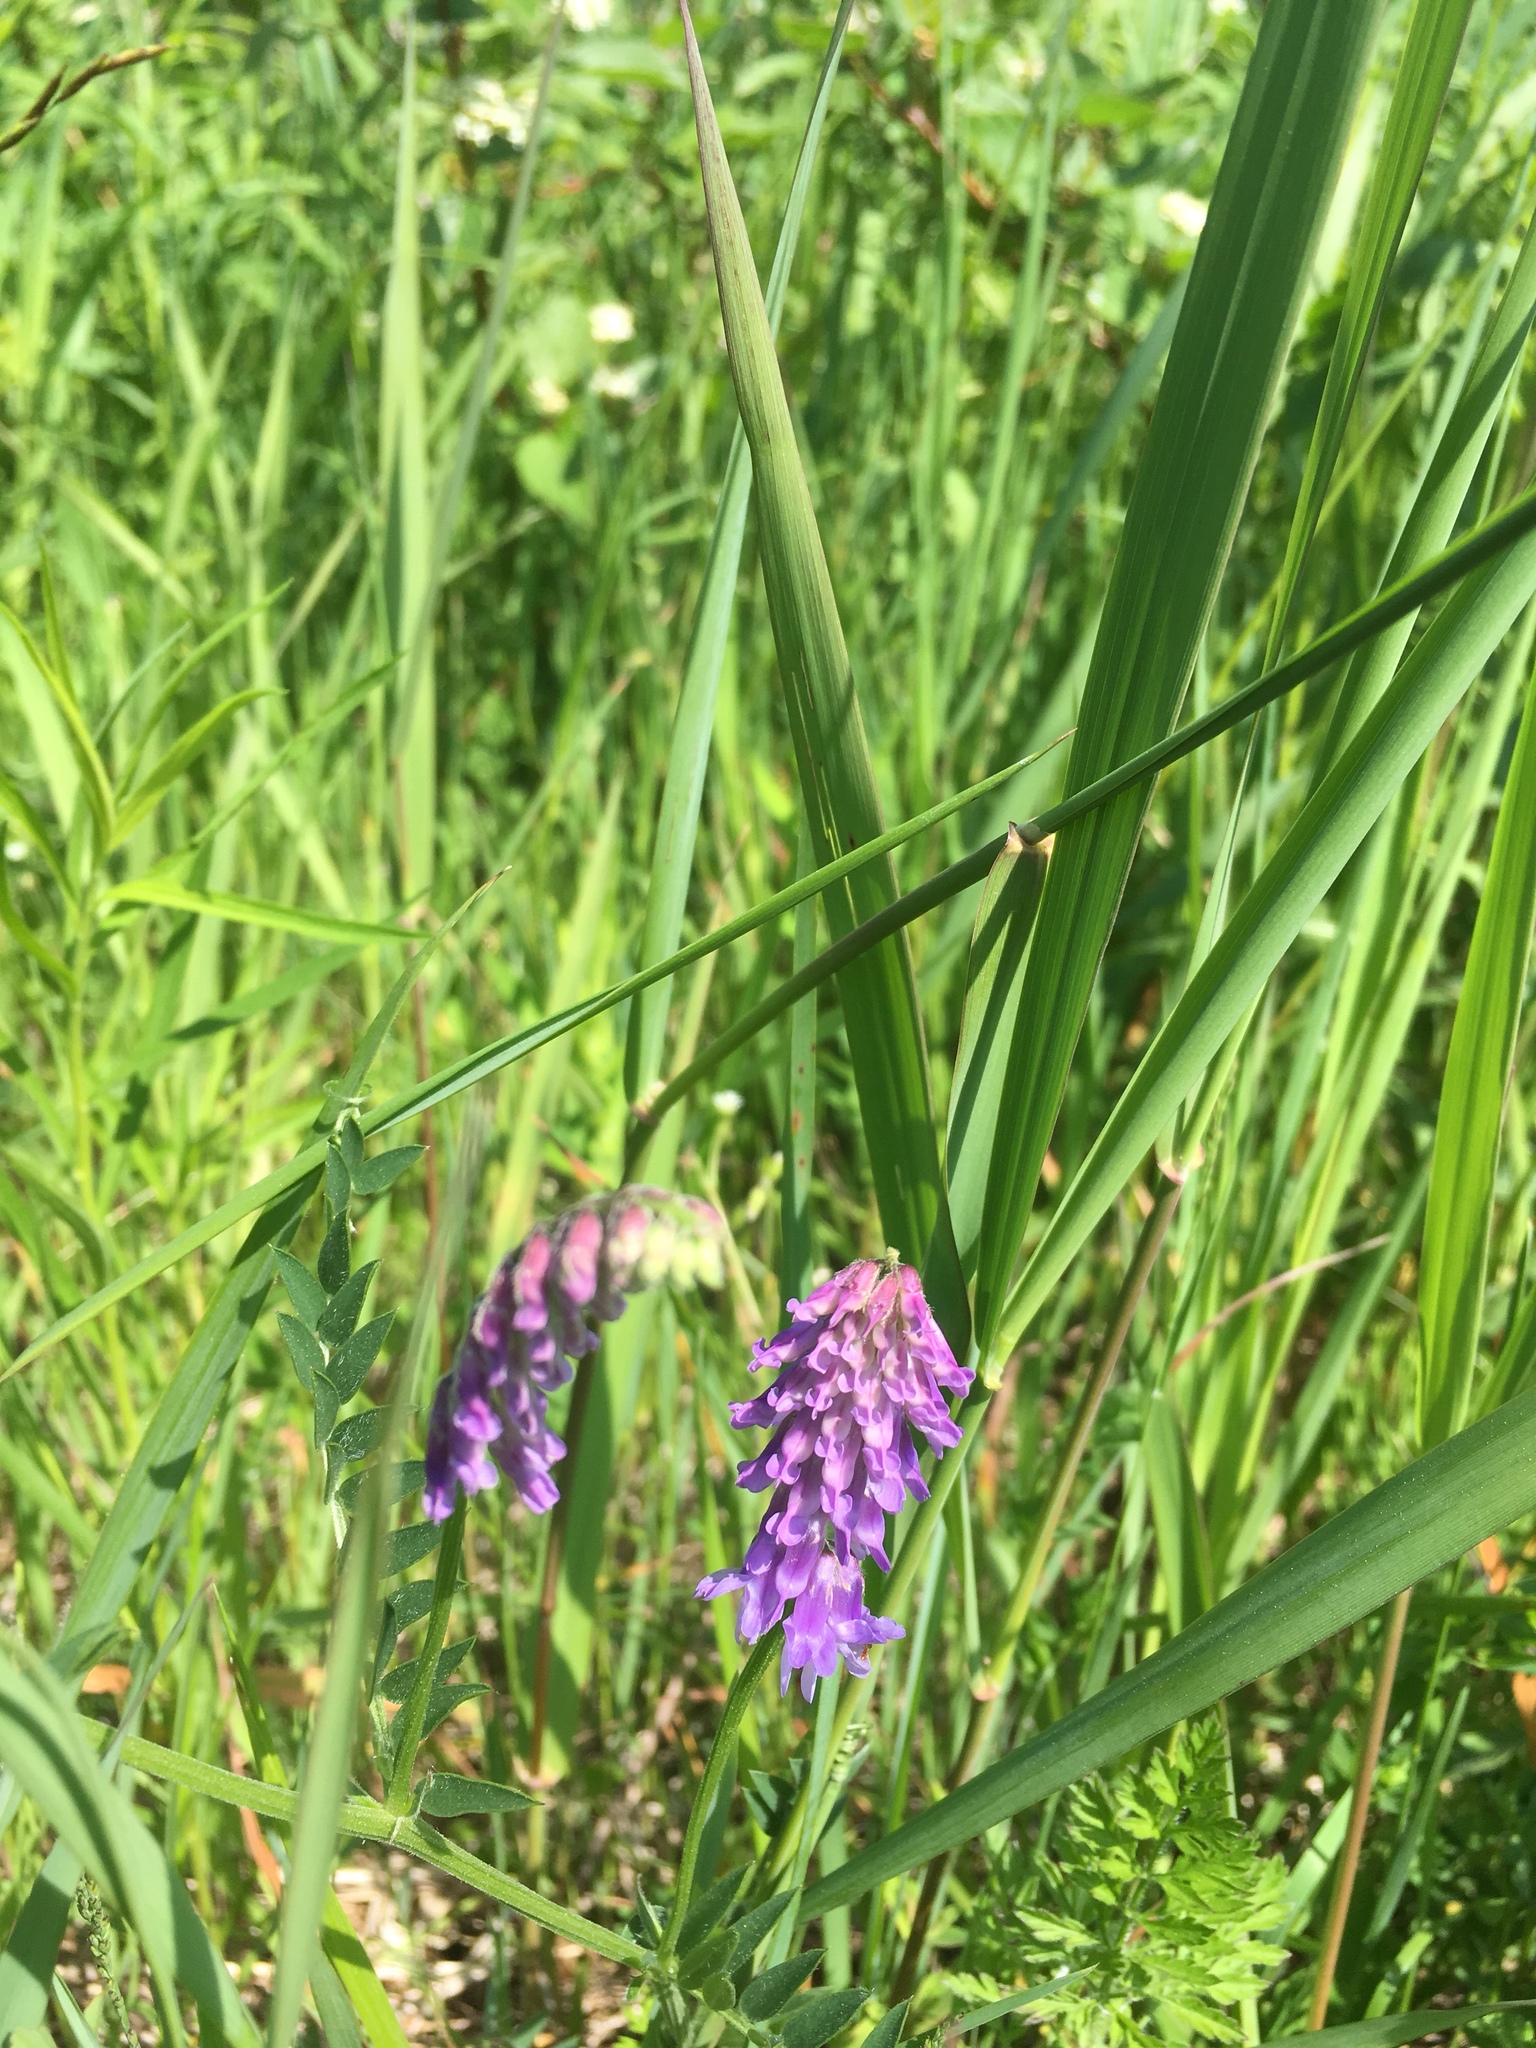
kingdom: Plantae
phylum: Tracheophyta
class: Magnoliopsida
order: Fabales
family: Fabaceae
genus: Vicia
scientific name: Vicia cracca
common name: Bird vetch
